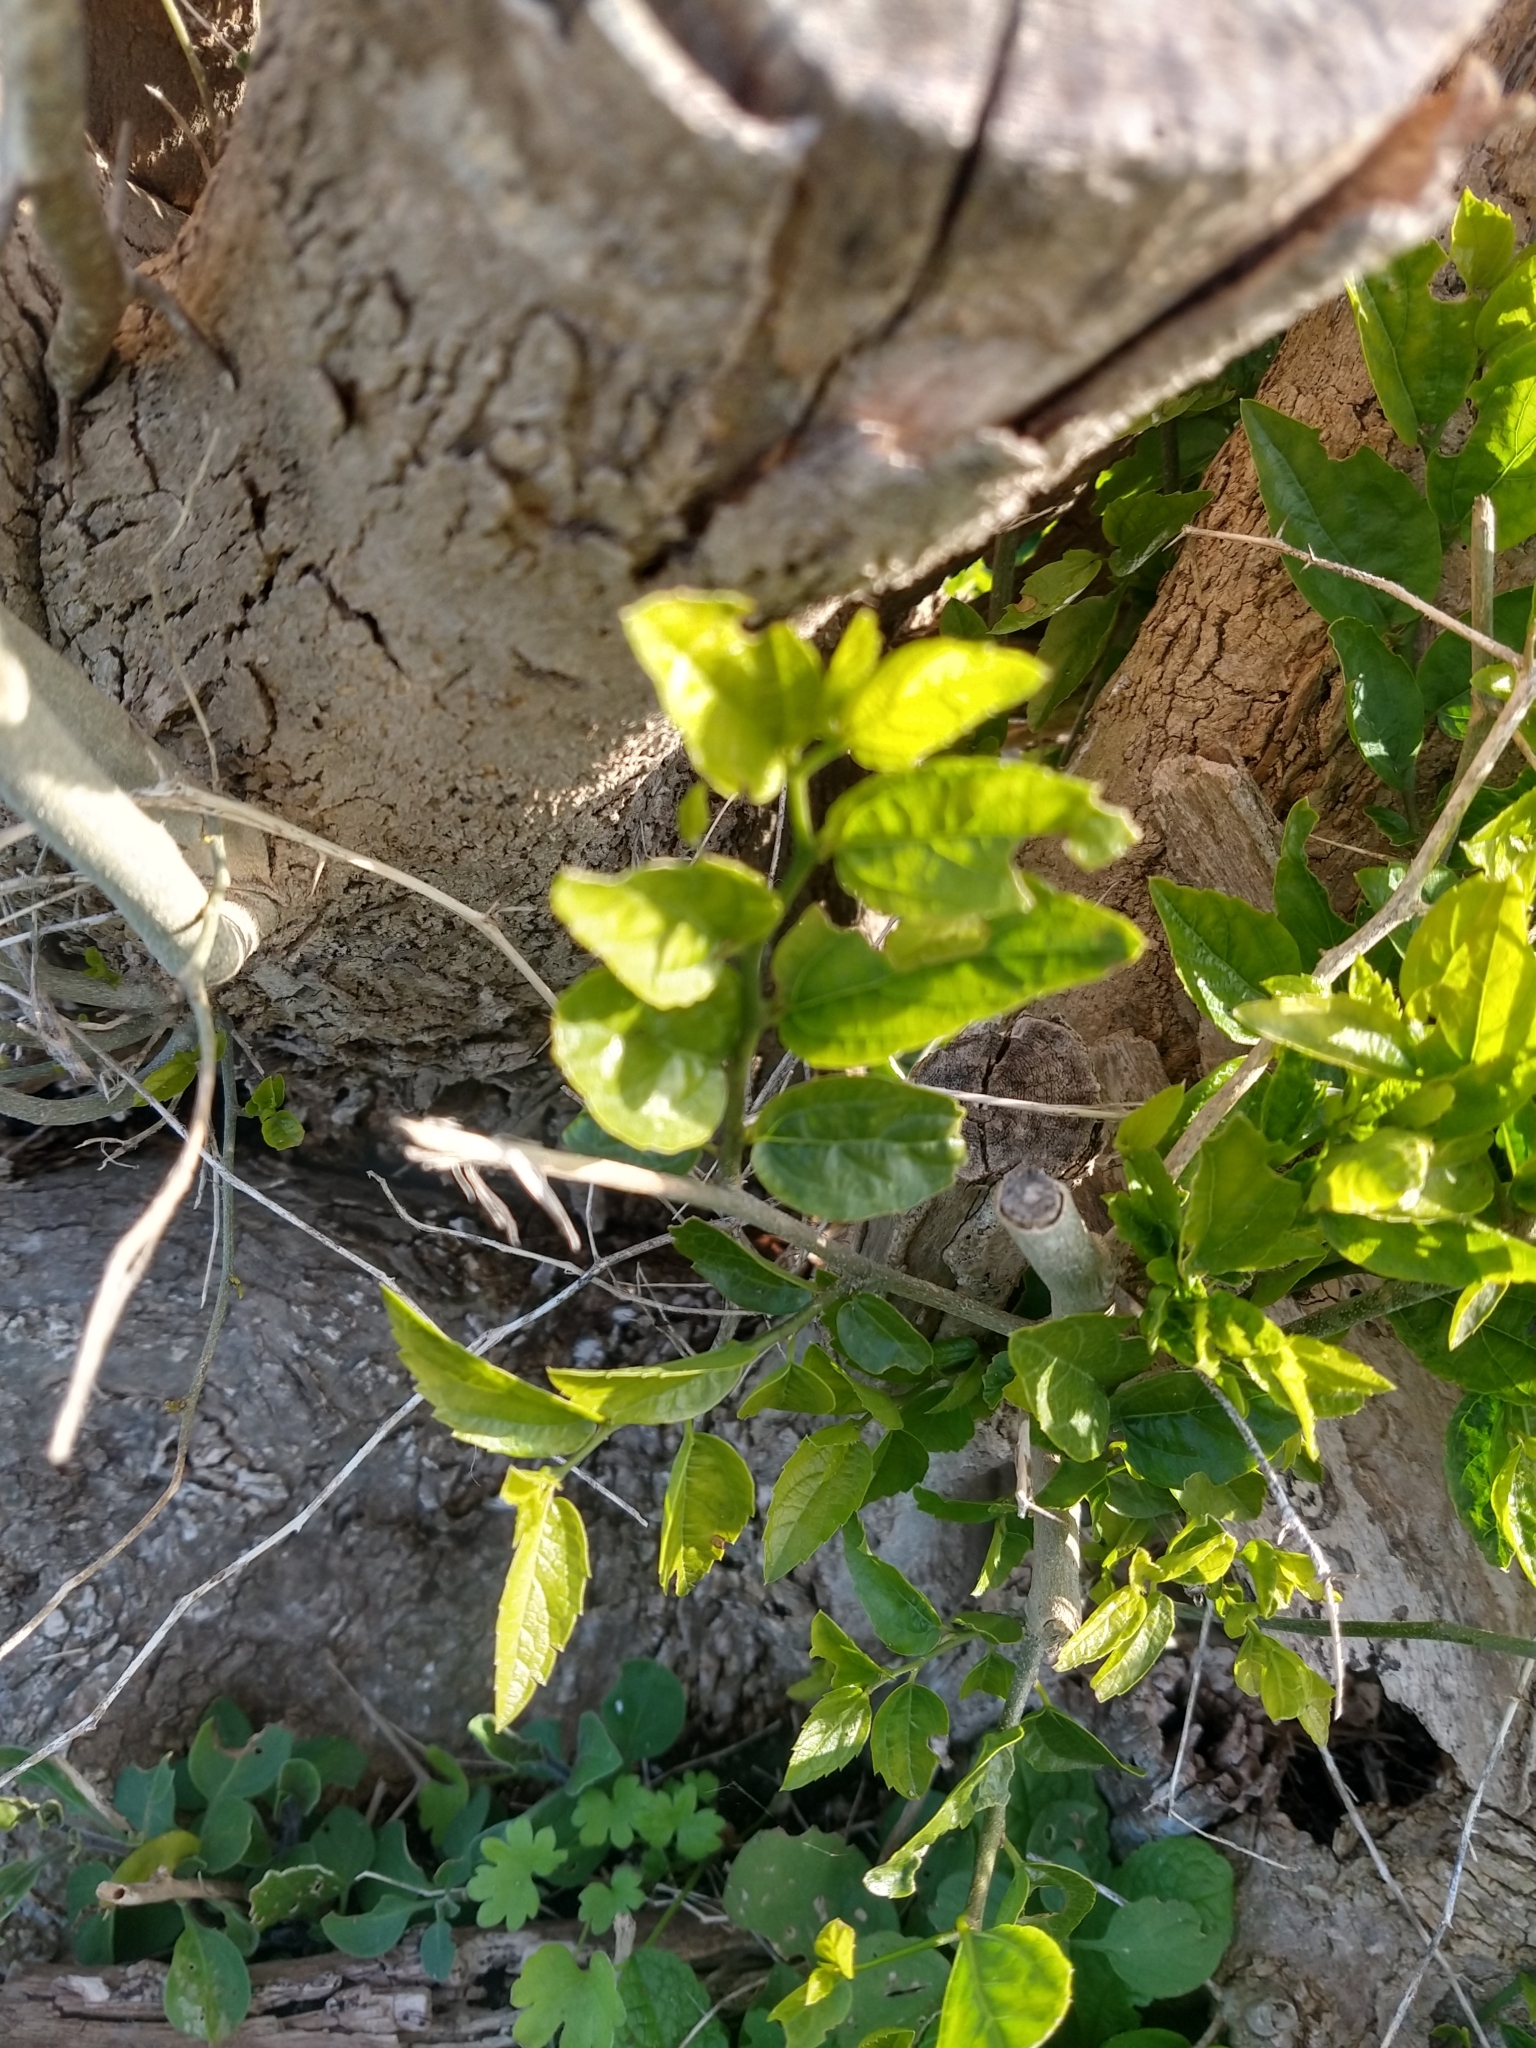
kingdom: Plantae
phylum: Tracheophyta
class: Magnoliopsida
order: Rosales
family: Cannabaceae
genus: Celtis
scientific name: Celtis tala
